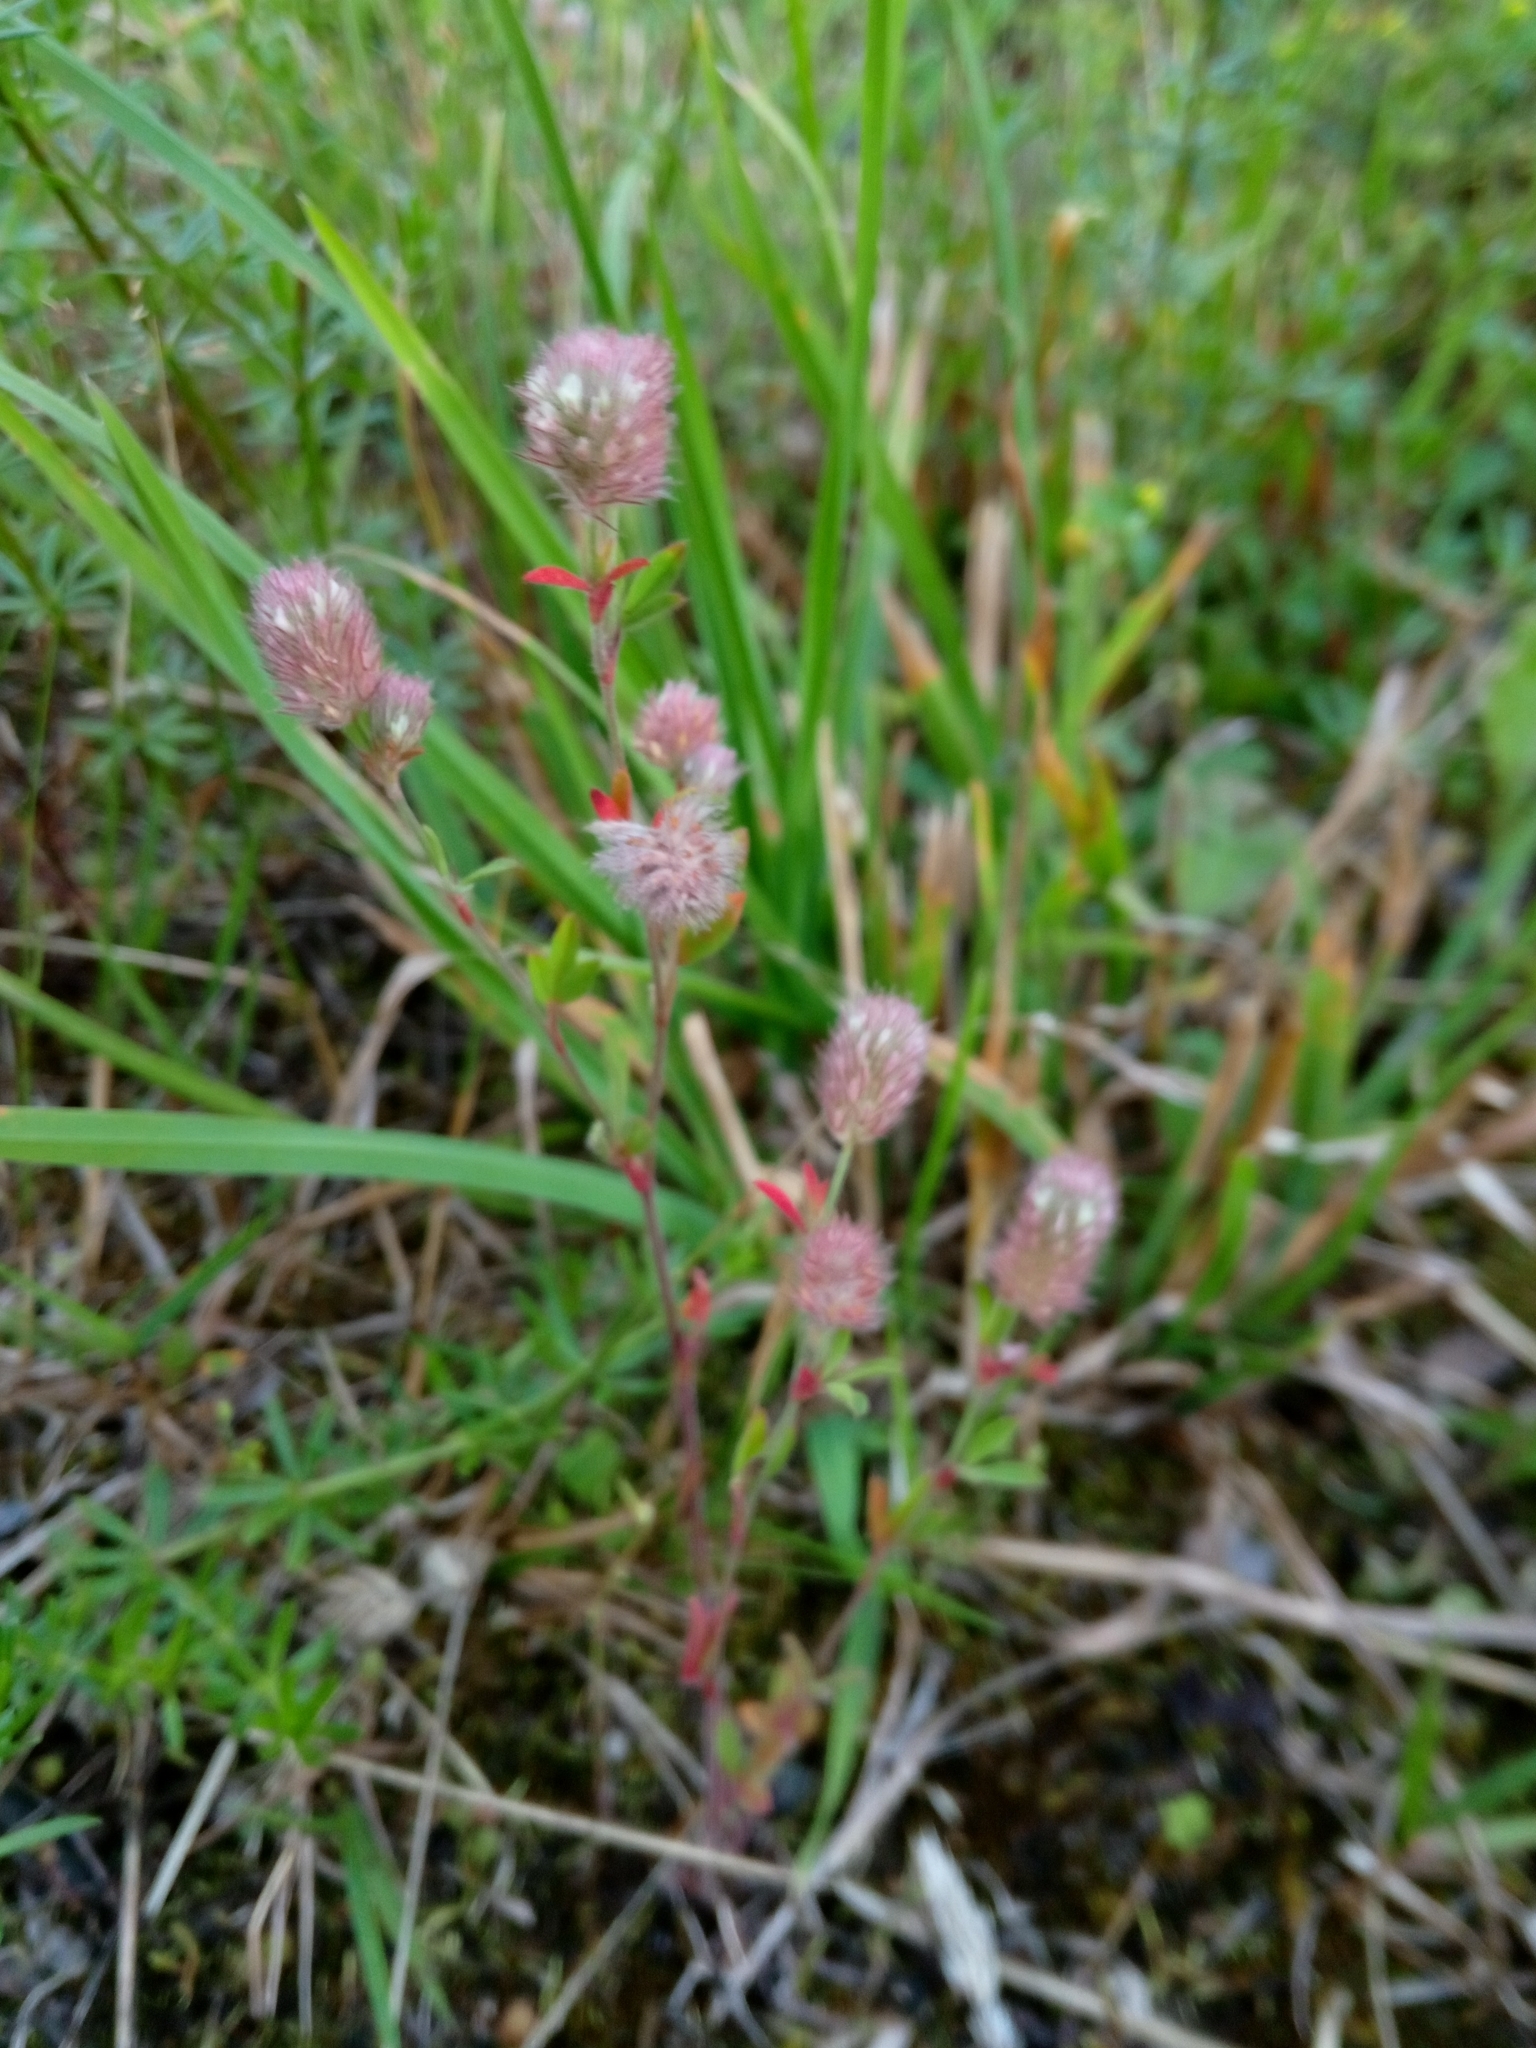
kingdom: Plantae
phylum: Tracheophyta
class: Magnoliopsida
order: Fabales
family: Fabaceae
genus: Trifolium
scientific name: Trifolium arvense
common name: Hare's-foot clover
